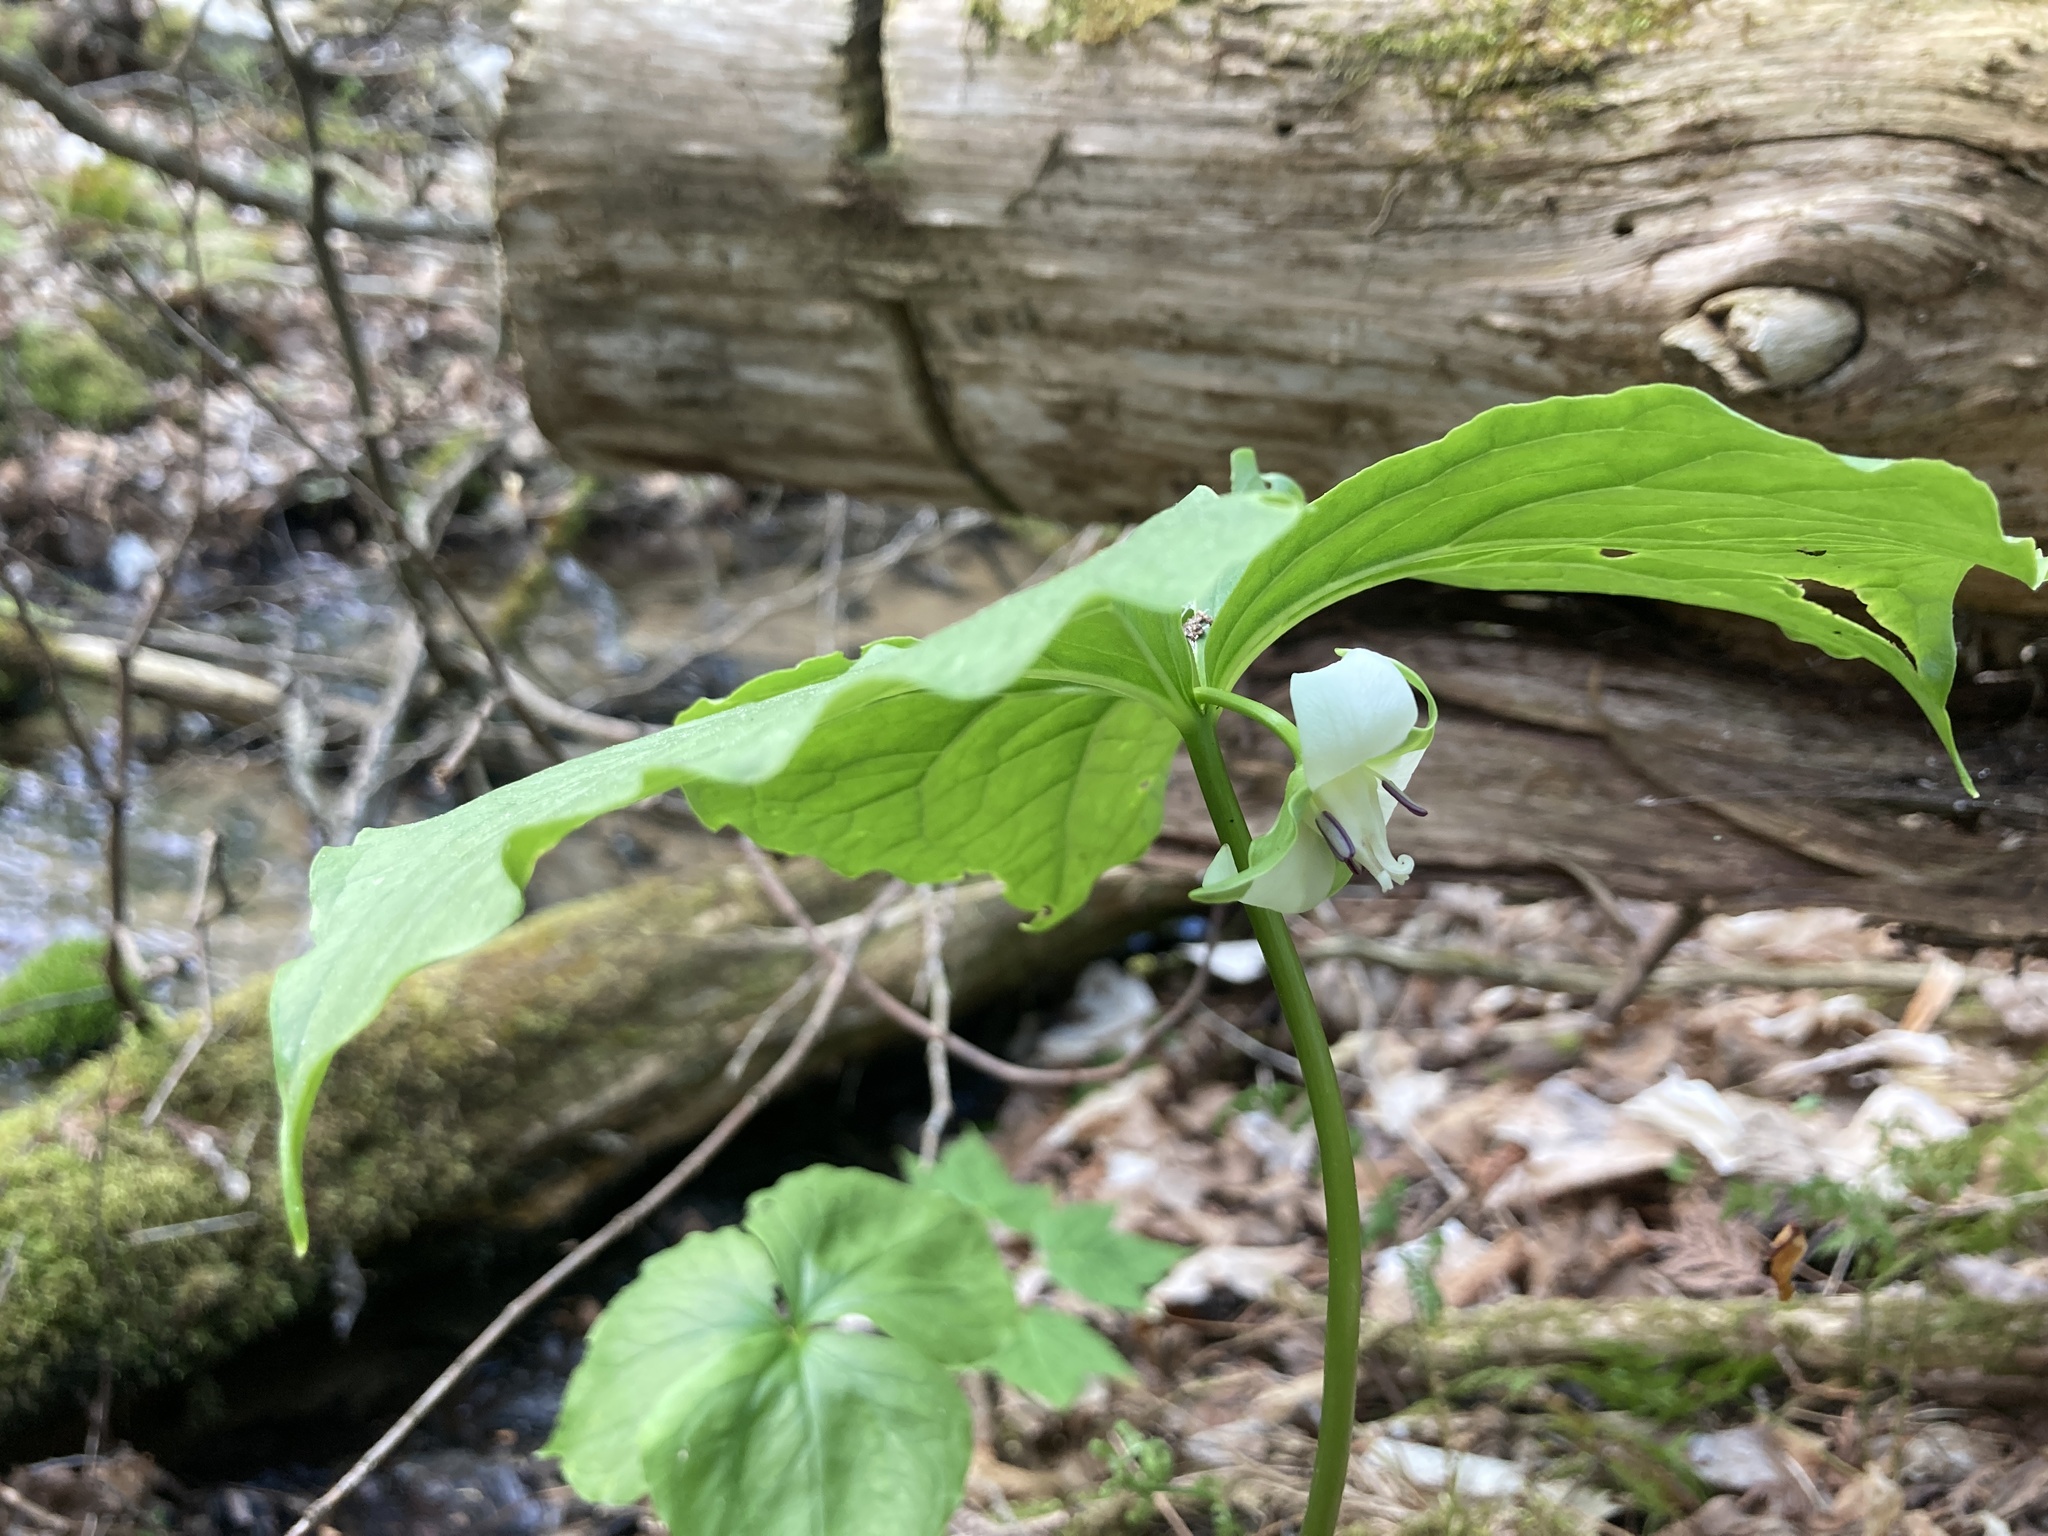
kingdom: Plantae
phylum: Tracheophyta
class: Liliopsida
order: Liliales
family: Melanthiaceae
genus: Trillium
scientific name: Trillium cernuum
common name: Nodding trillium
